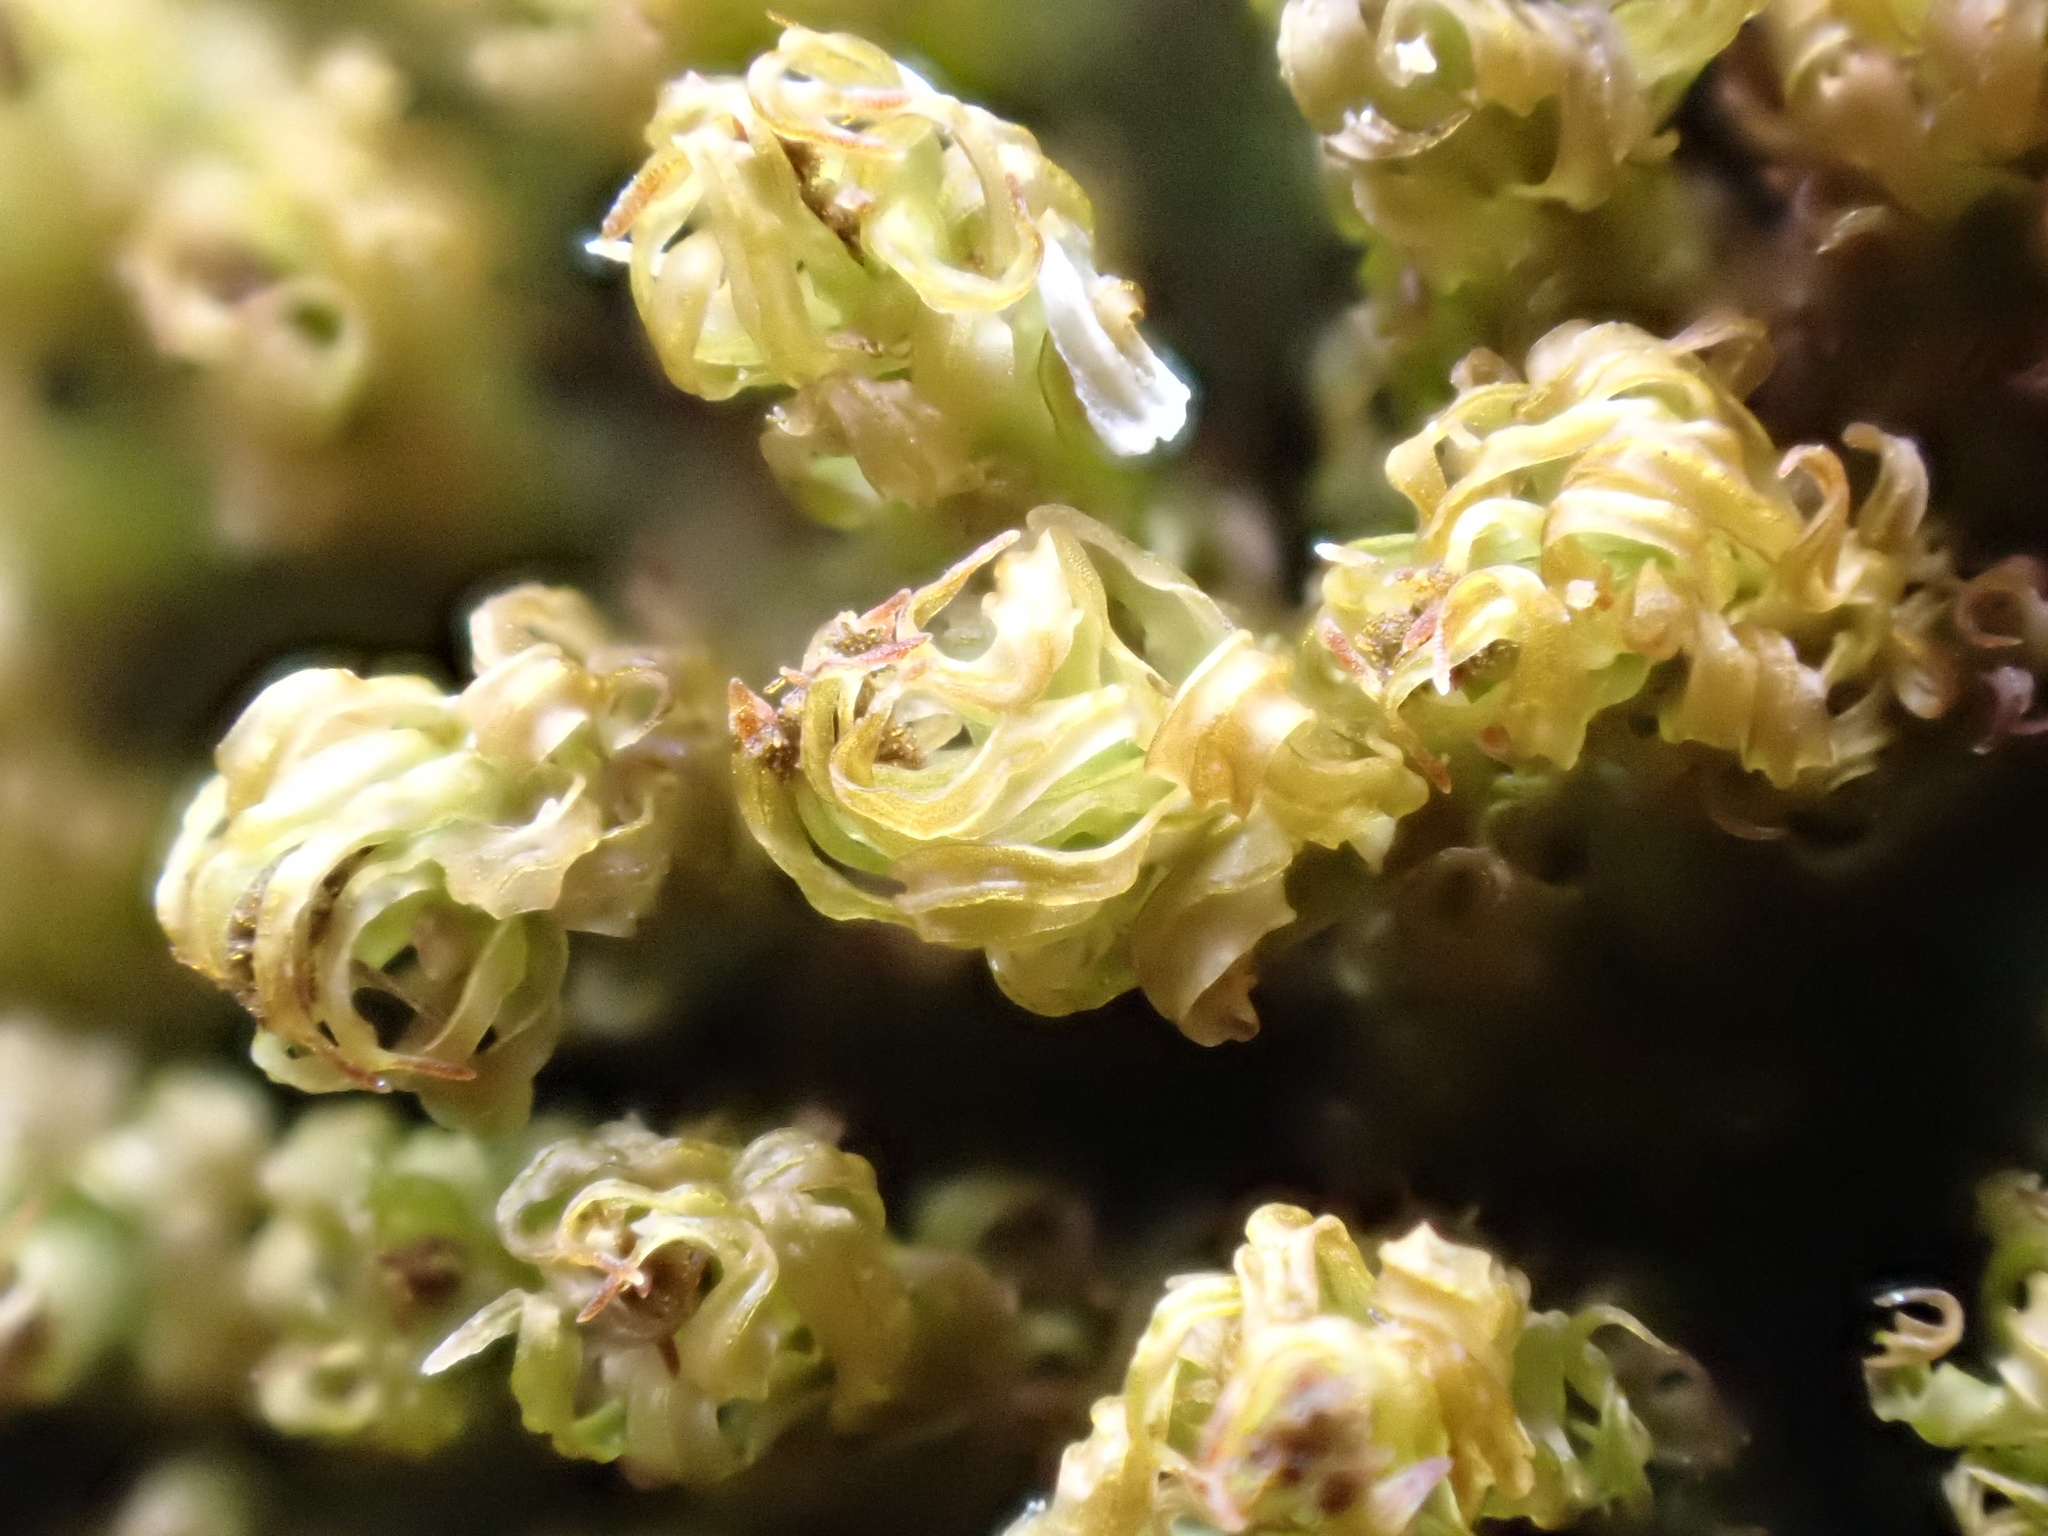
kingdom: Plantae
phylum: Bryophyta
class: Bryopsida
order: Orthotrichales
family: Orthotrichaceae
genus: Plenogemma
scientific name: Plenogemma phyllantha
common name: Frizzled pincushion
